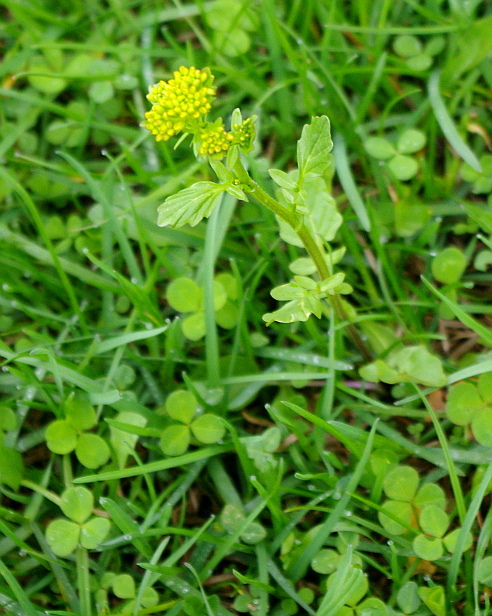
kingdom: Plantae
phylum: Tracheophyta
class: Magnoliopsida
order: Brassicales
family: Brassicaceae
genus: Barbarea
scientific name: Barbarea vulgaris
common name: Cressy-greens
